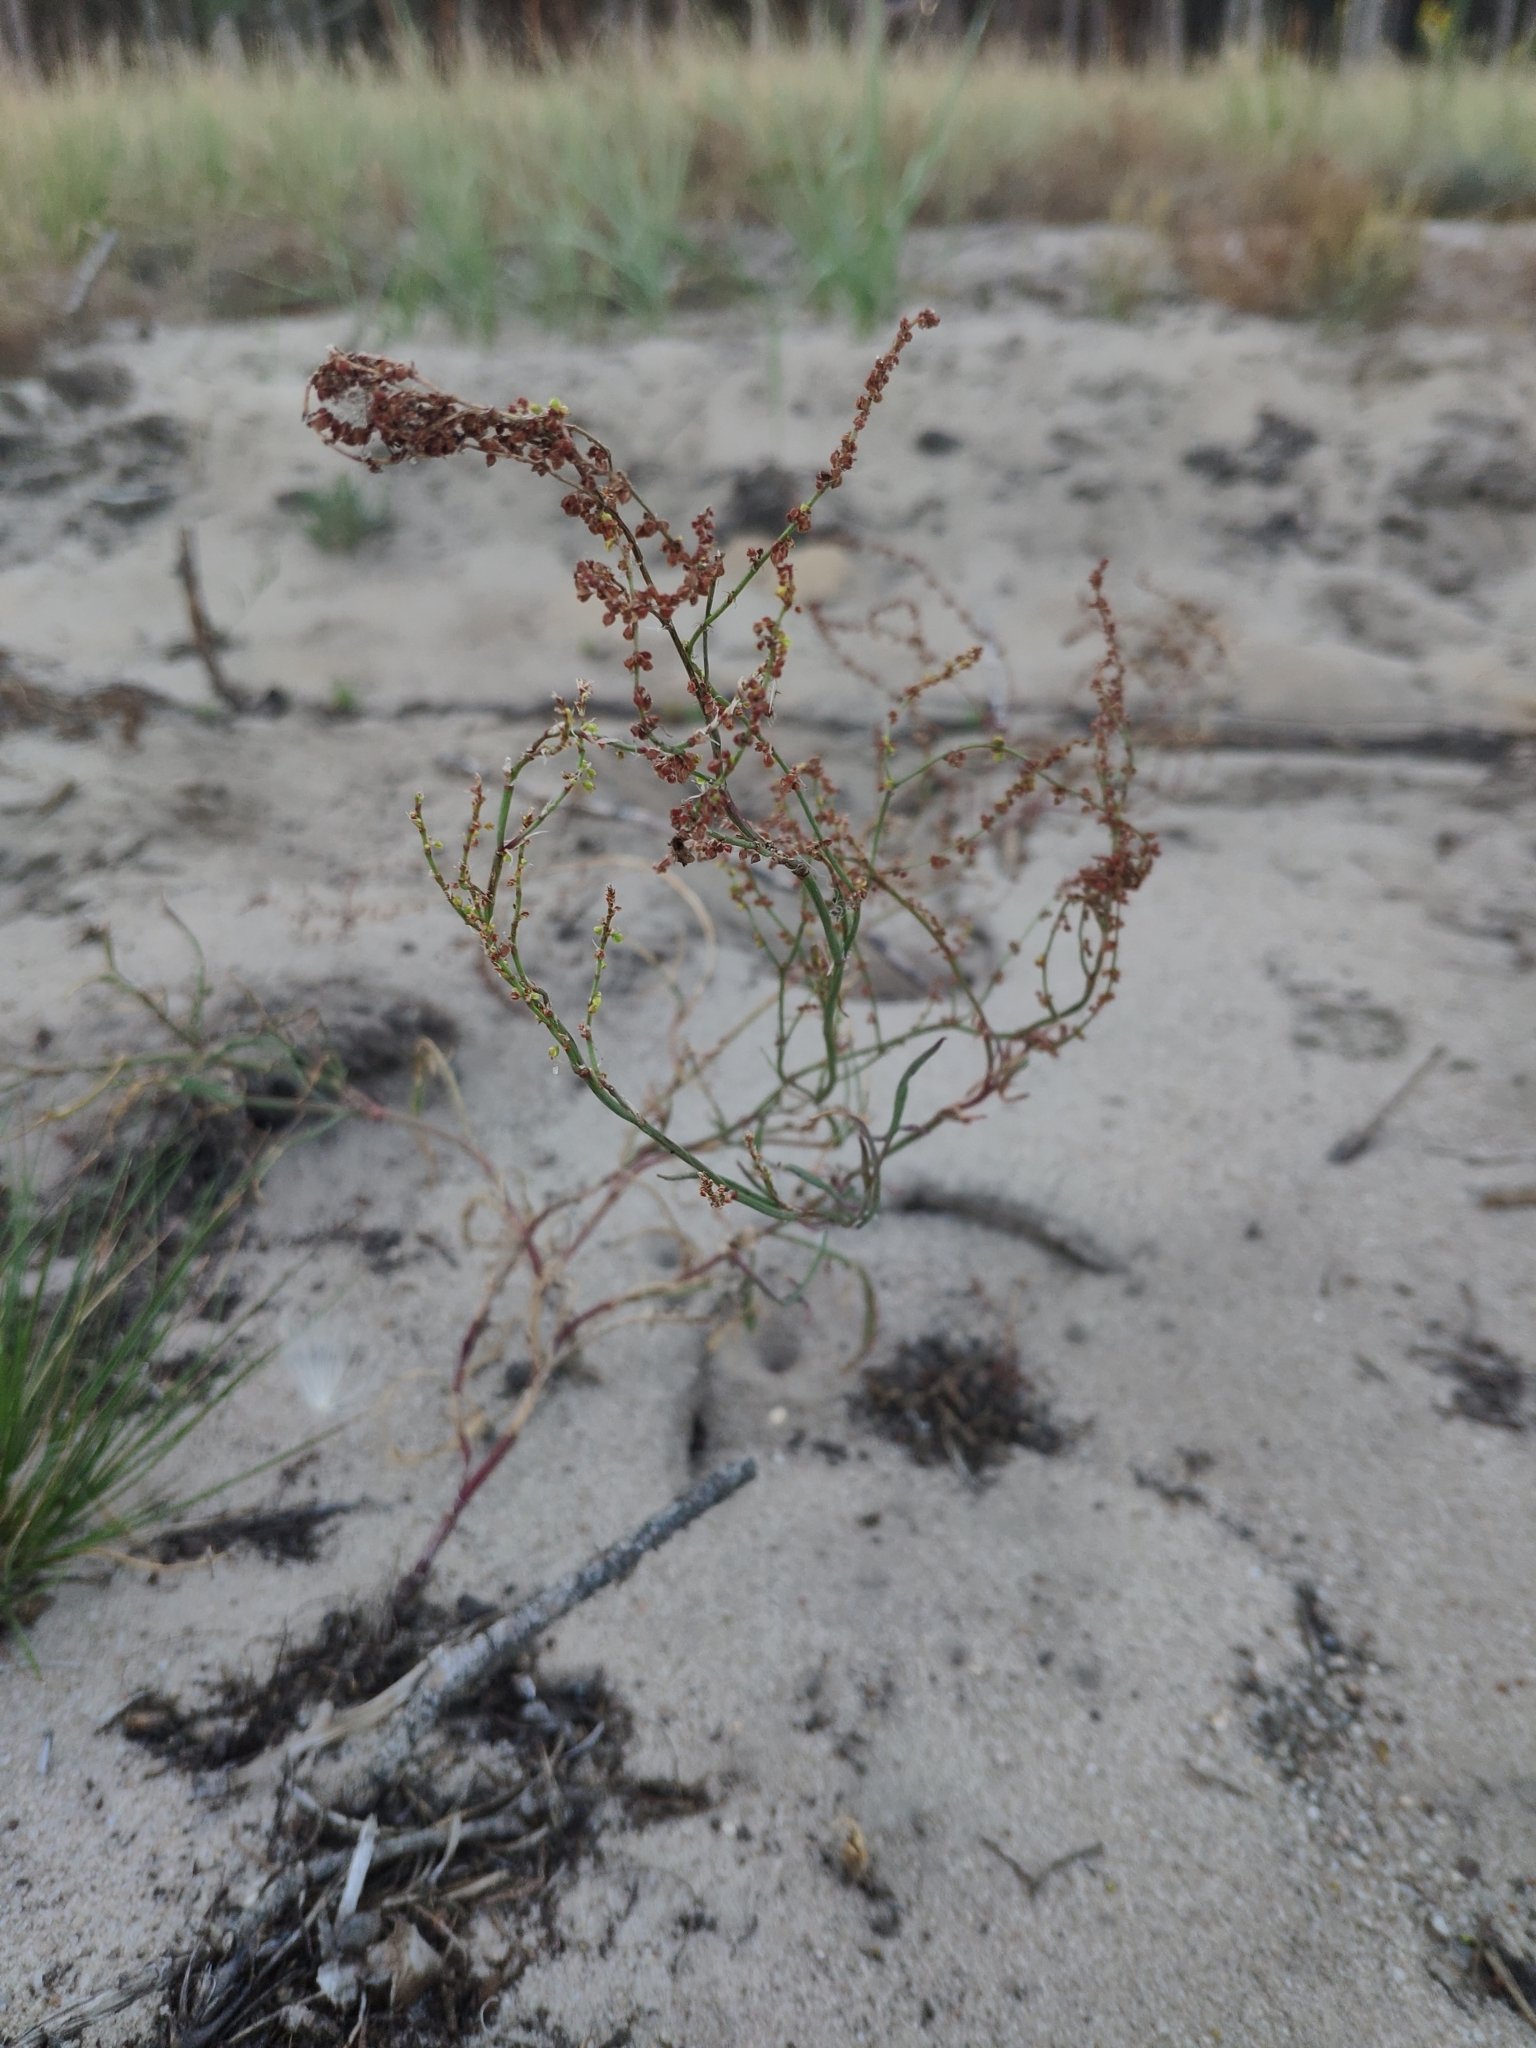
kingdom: Plantae
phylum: Tracheophyta
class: Magnoliopsida
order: Caryophyllales
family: Polygonaceae
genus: Rumex
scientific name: Rumex acetosella
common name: Common sheep sorrel
